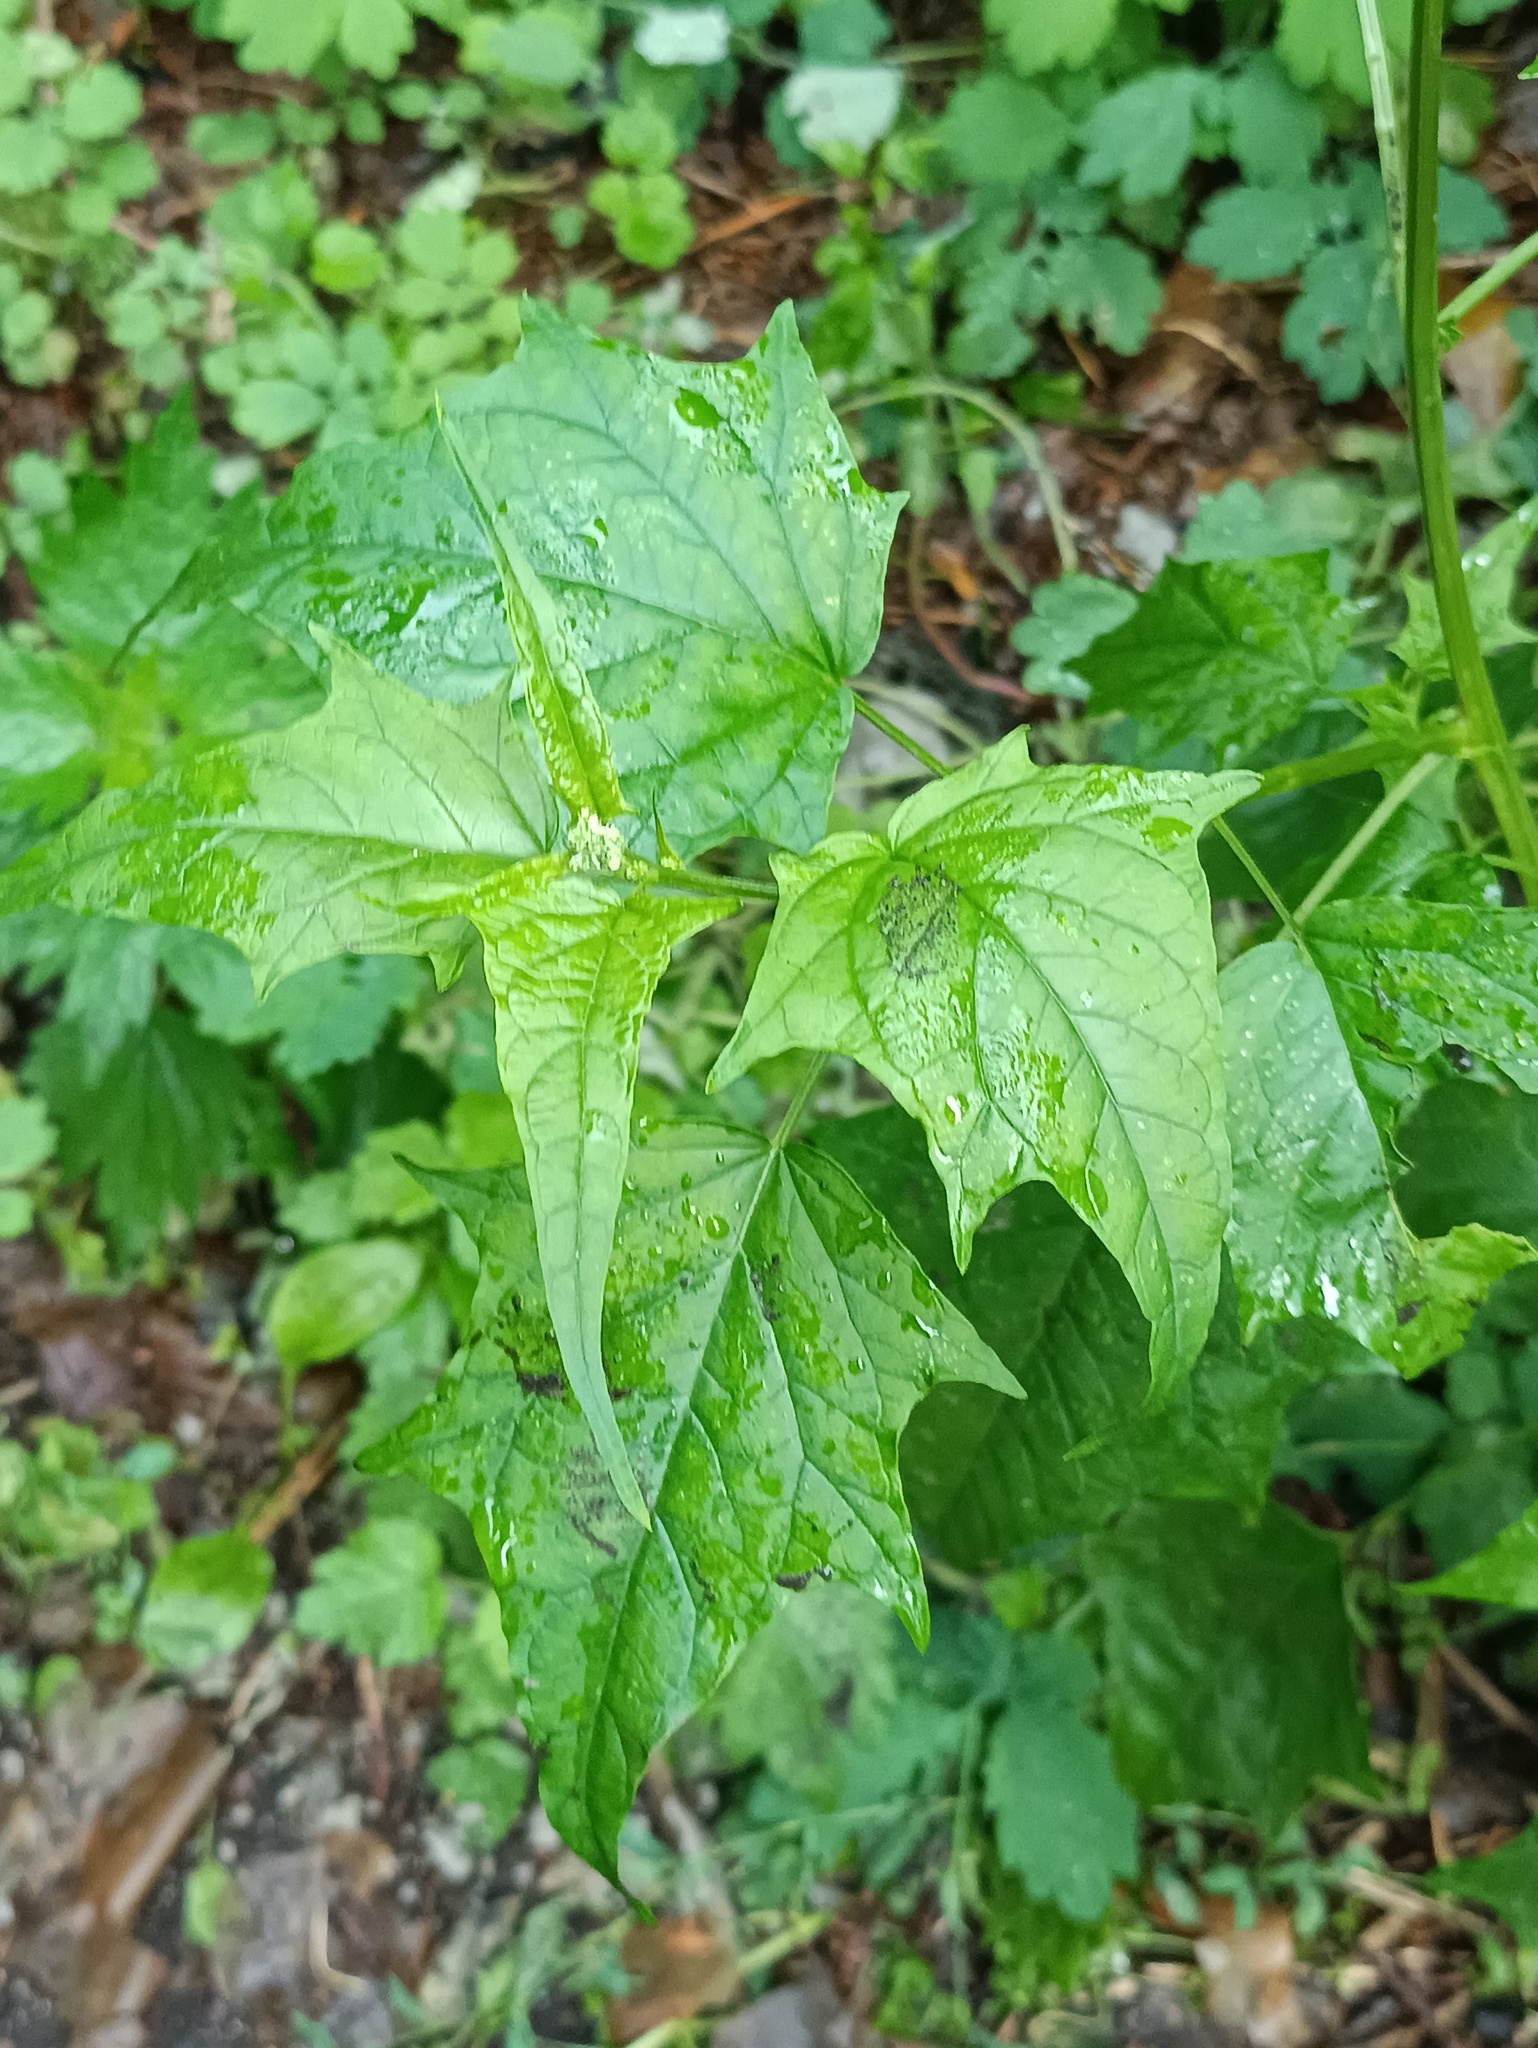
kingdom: Plantae
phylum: Tracheophyta
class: Magnoliopsida
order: Caryophyllales
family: Amaranthaceae
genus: Chenopodiastrum
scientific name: Chenopodiastrum hybridum
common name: Mapleleaf goosefoot
